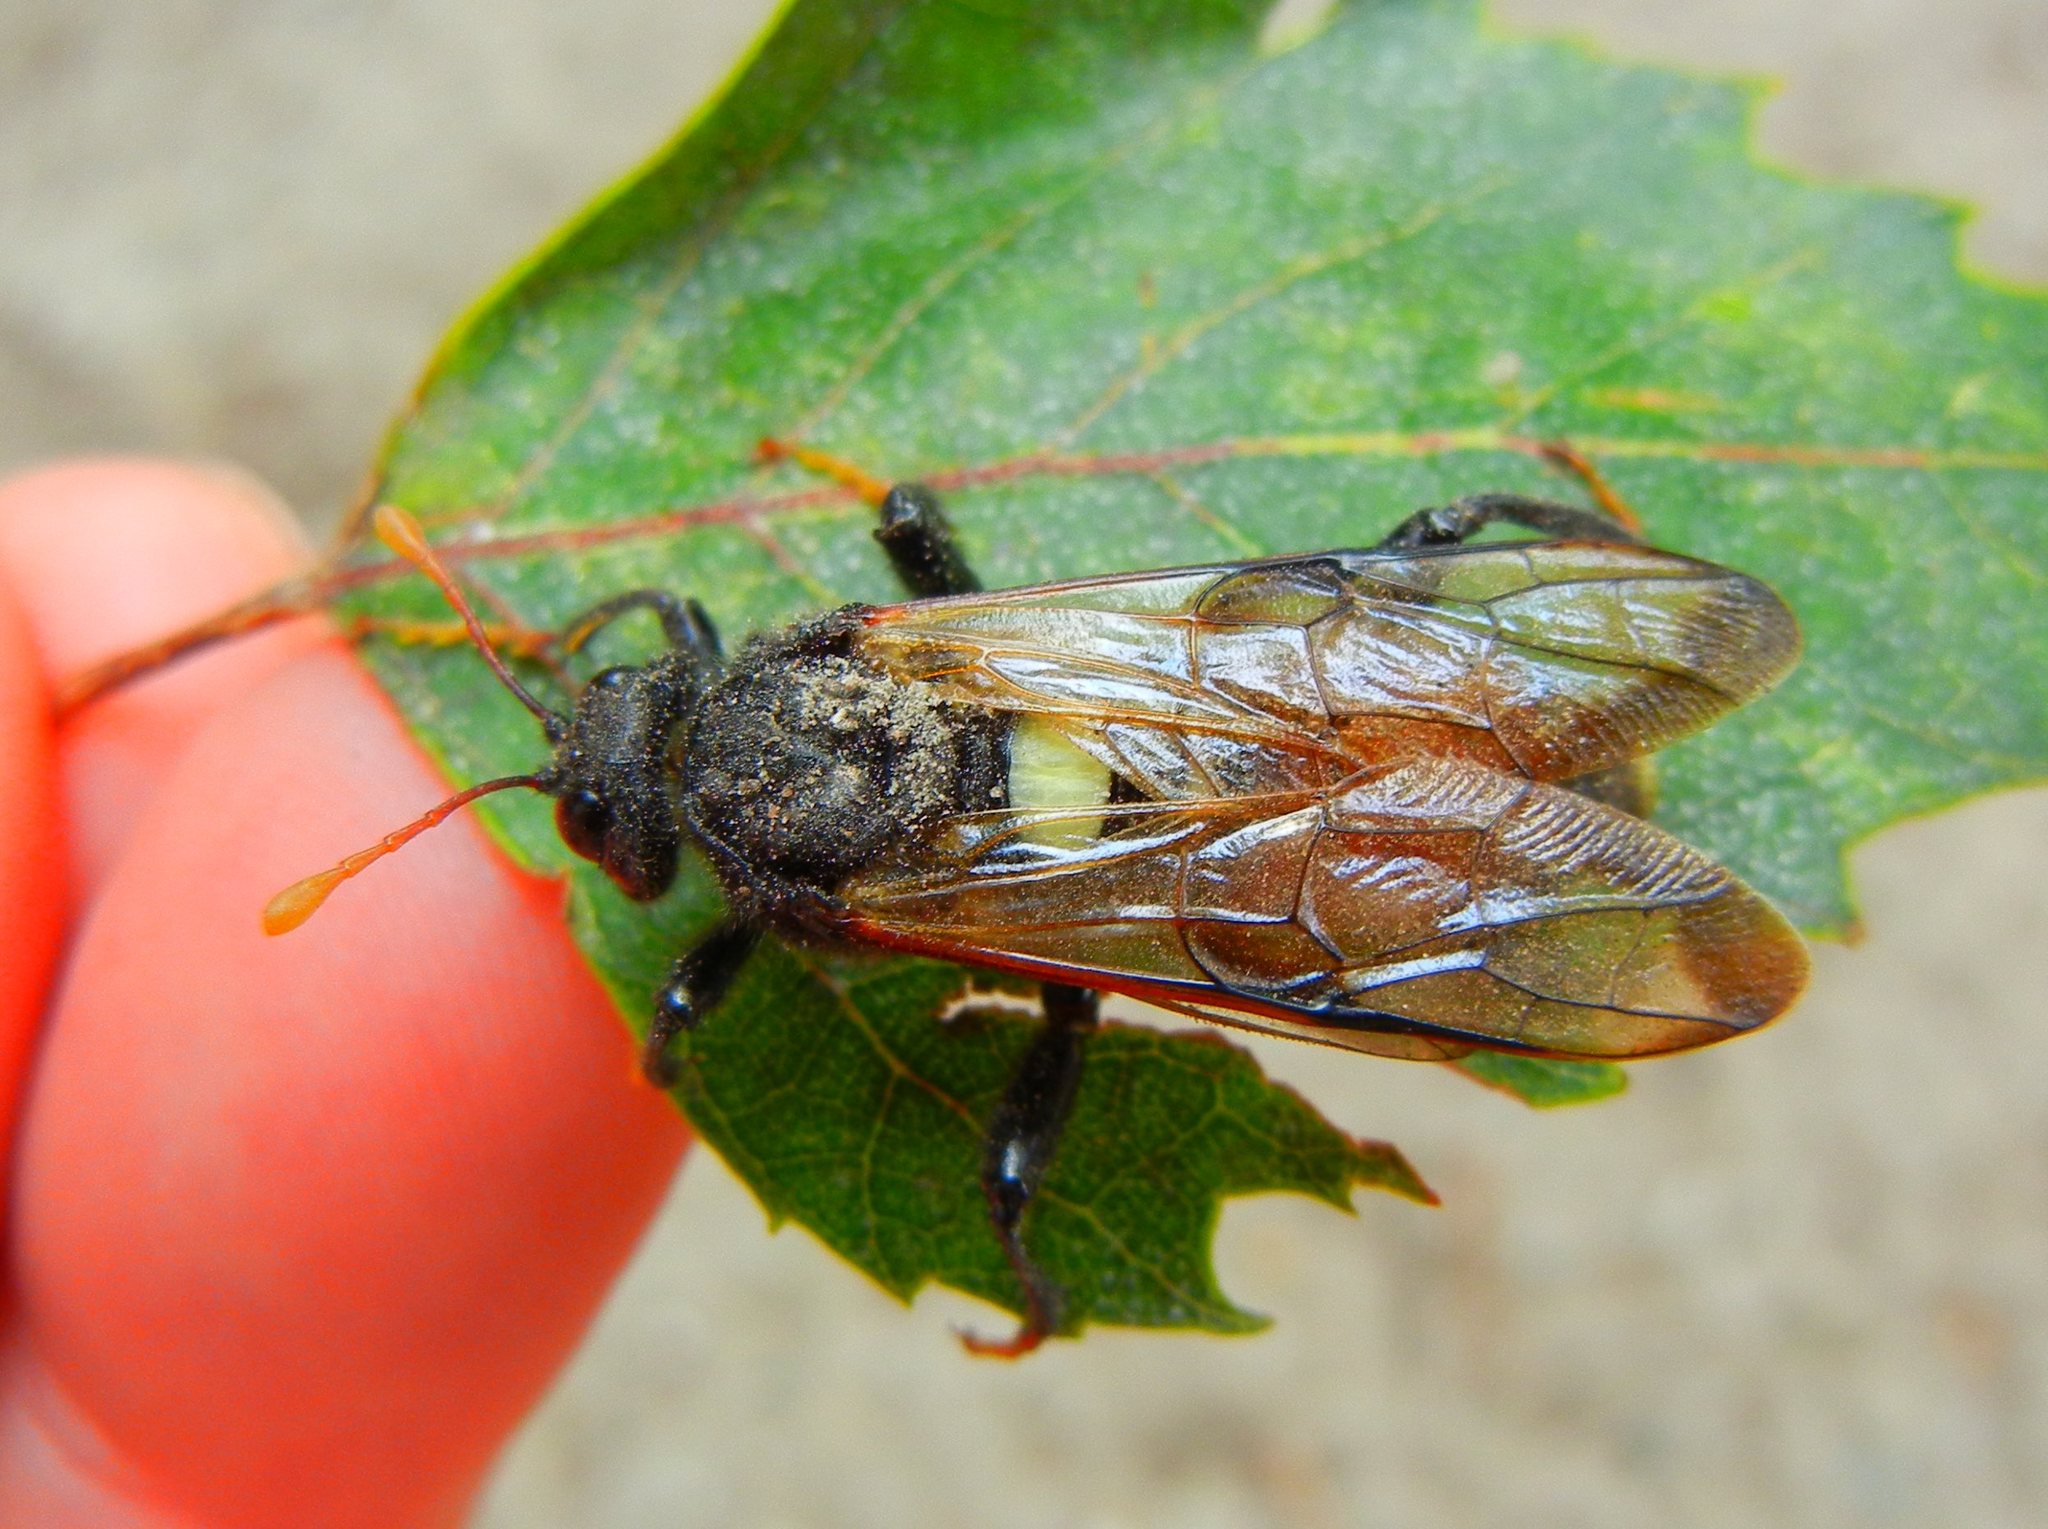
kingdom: Animalia
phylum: Arthropoda
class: Insecta
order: Hymenoptera
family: Cimbicidae
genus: Cimbex
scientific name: Cimbex femoratus
